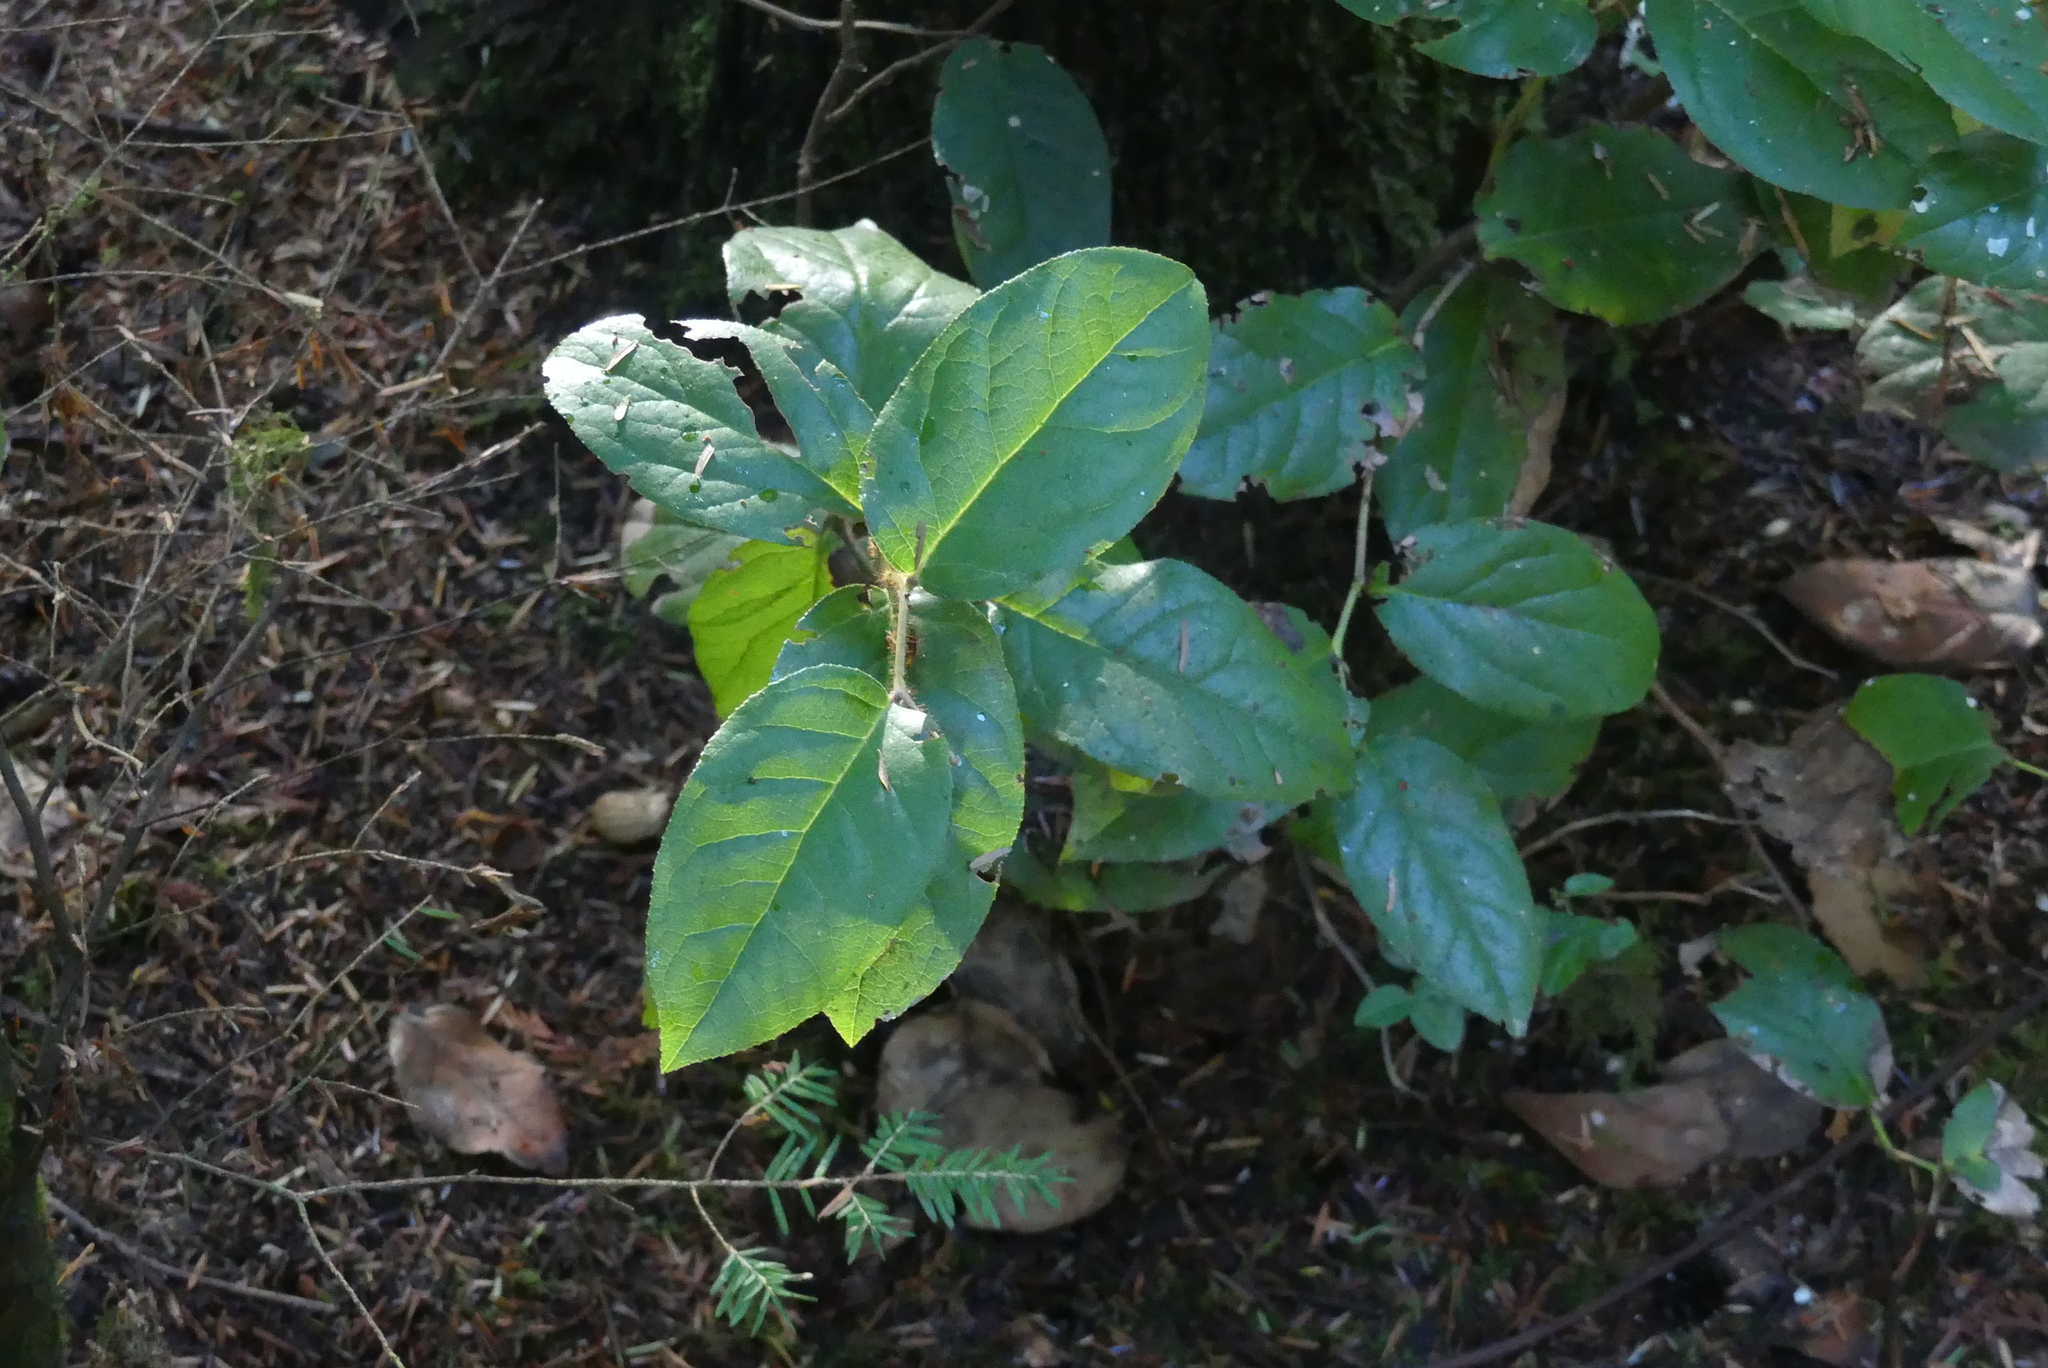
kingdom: Plantae
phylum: Tracheophyta
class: Magnoliopsida
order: Ericales
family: Ericaceae
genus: Gaultheria
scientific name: Gaultheria shallon
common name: Shallon
